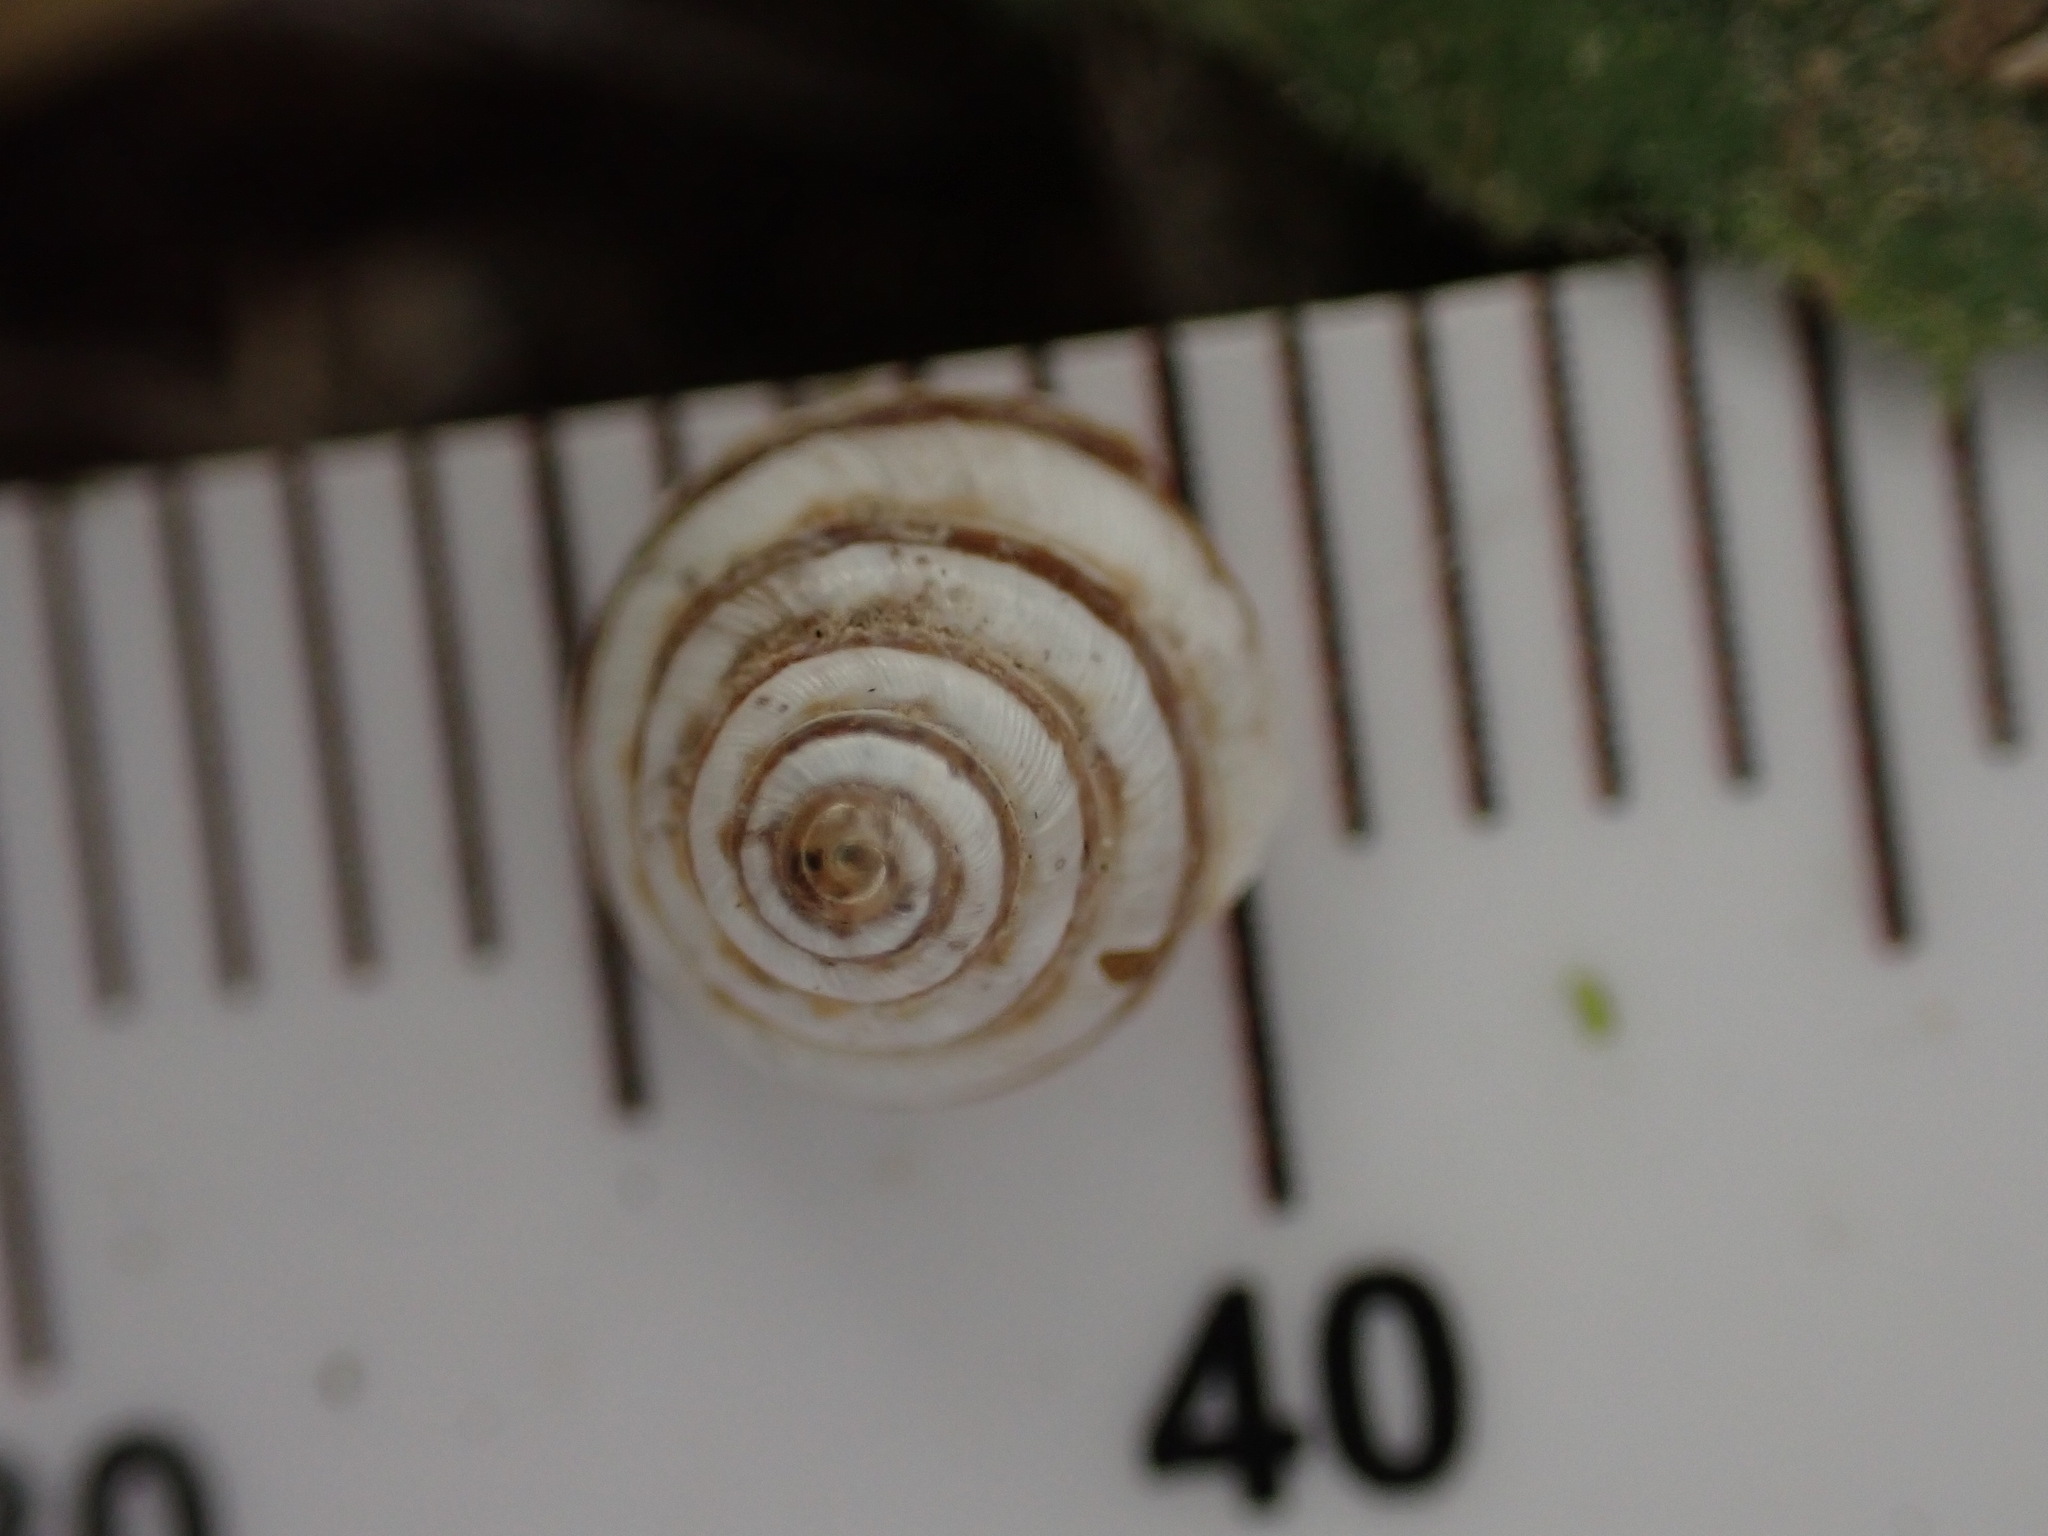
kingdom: Animalia
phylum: Mollusca
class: Gastropoda
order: Stylommatophora
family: Geomitridae
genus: Trochoidea
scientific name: Trochoidea trochoides
